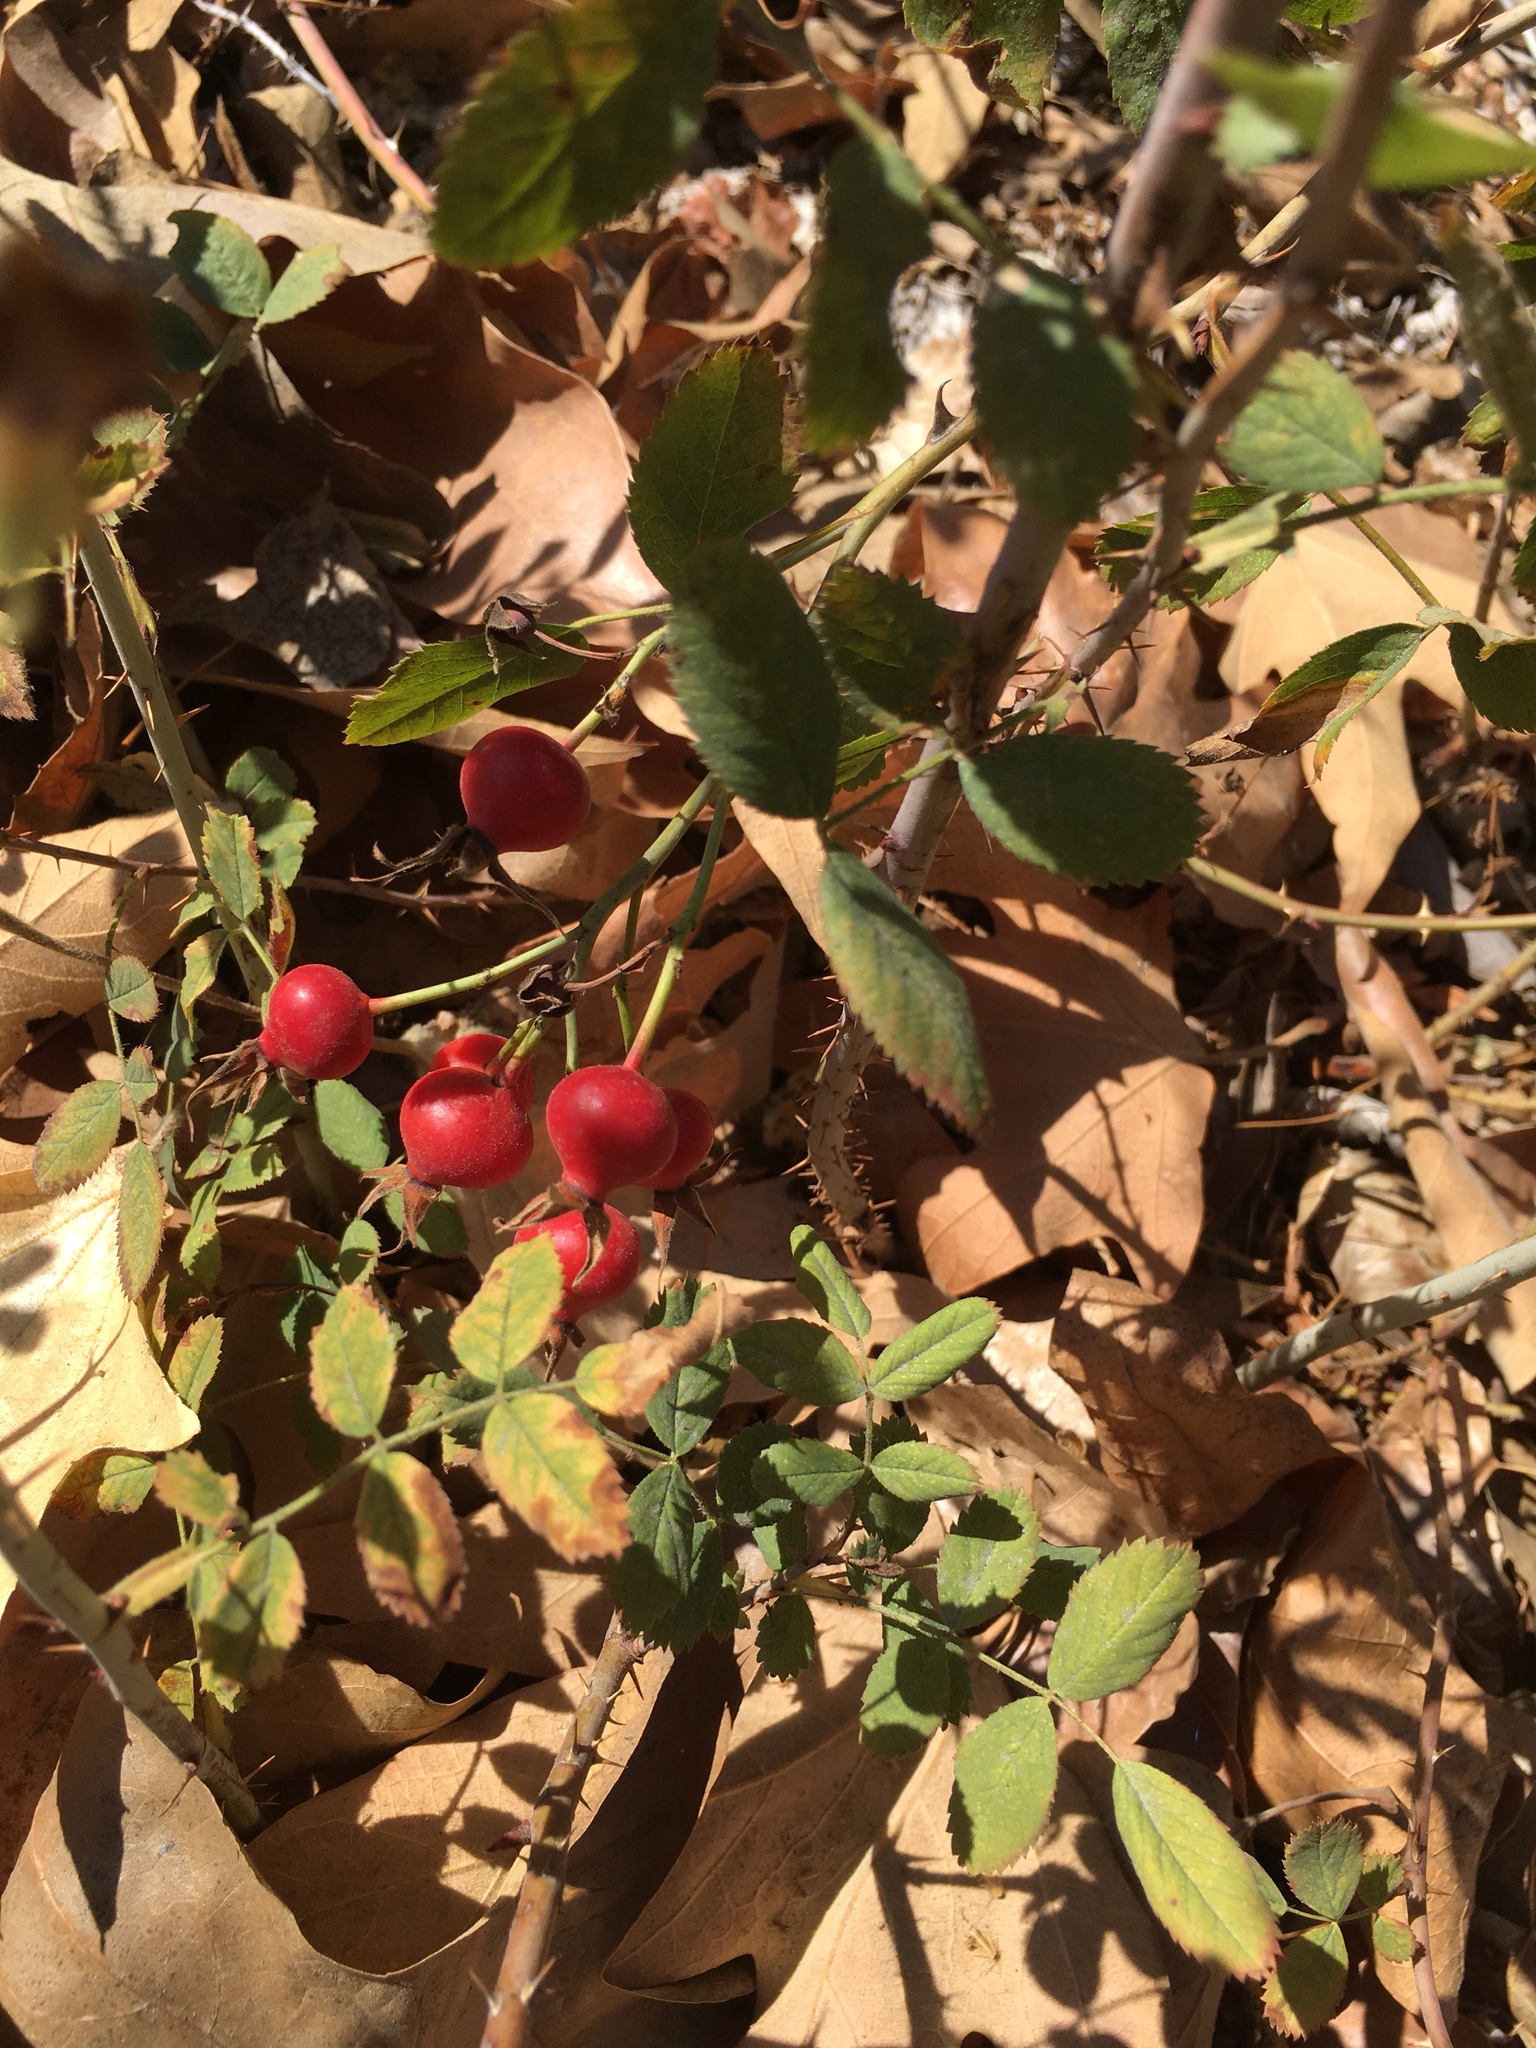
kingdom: Plantae
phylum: Tracheophyta
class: Magnoliopsida
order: Rosales
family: Rosaceae
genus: Rosa
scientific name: Rosa californica
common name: California rose
